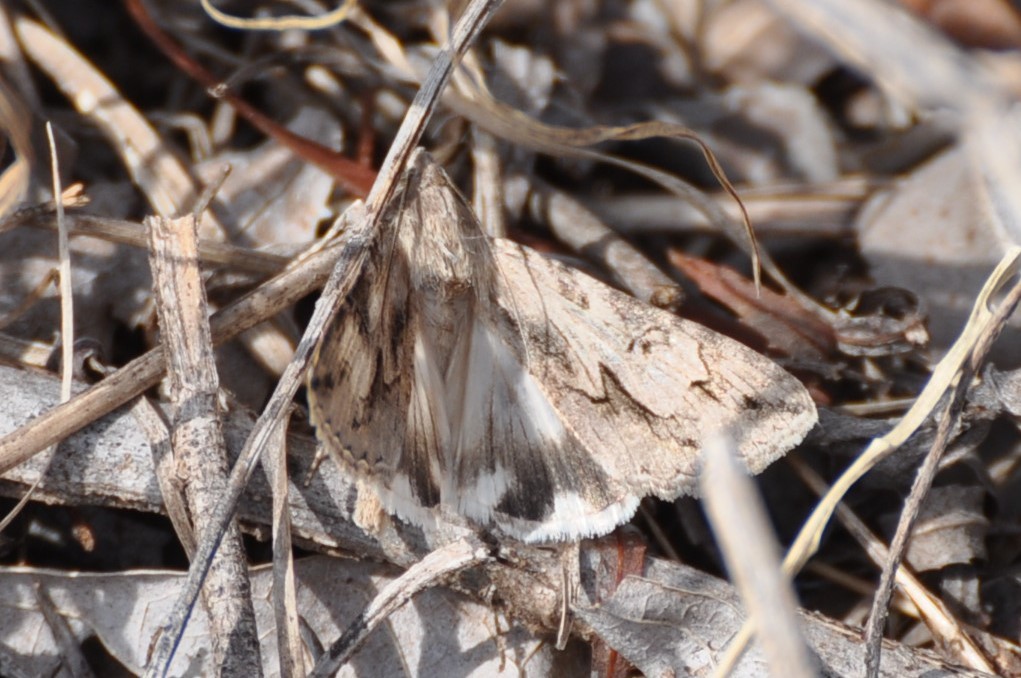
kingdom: Animalia
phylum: Arthropoda
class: Insecta
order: Lepidoptera
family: Erebidae
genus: Melipotis
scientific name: Melipotis jucunda
